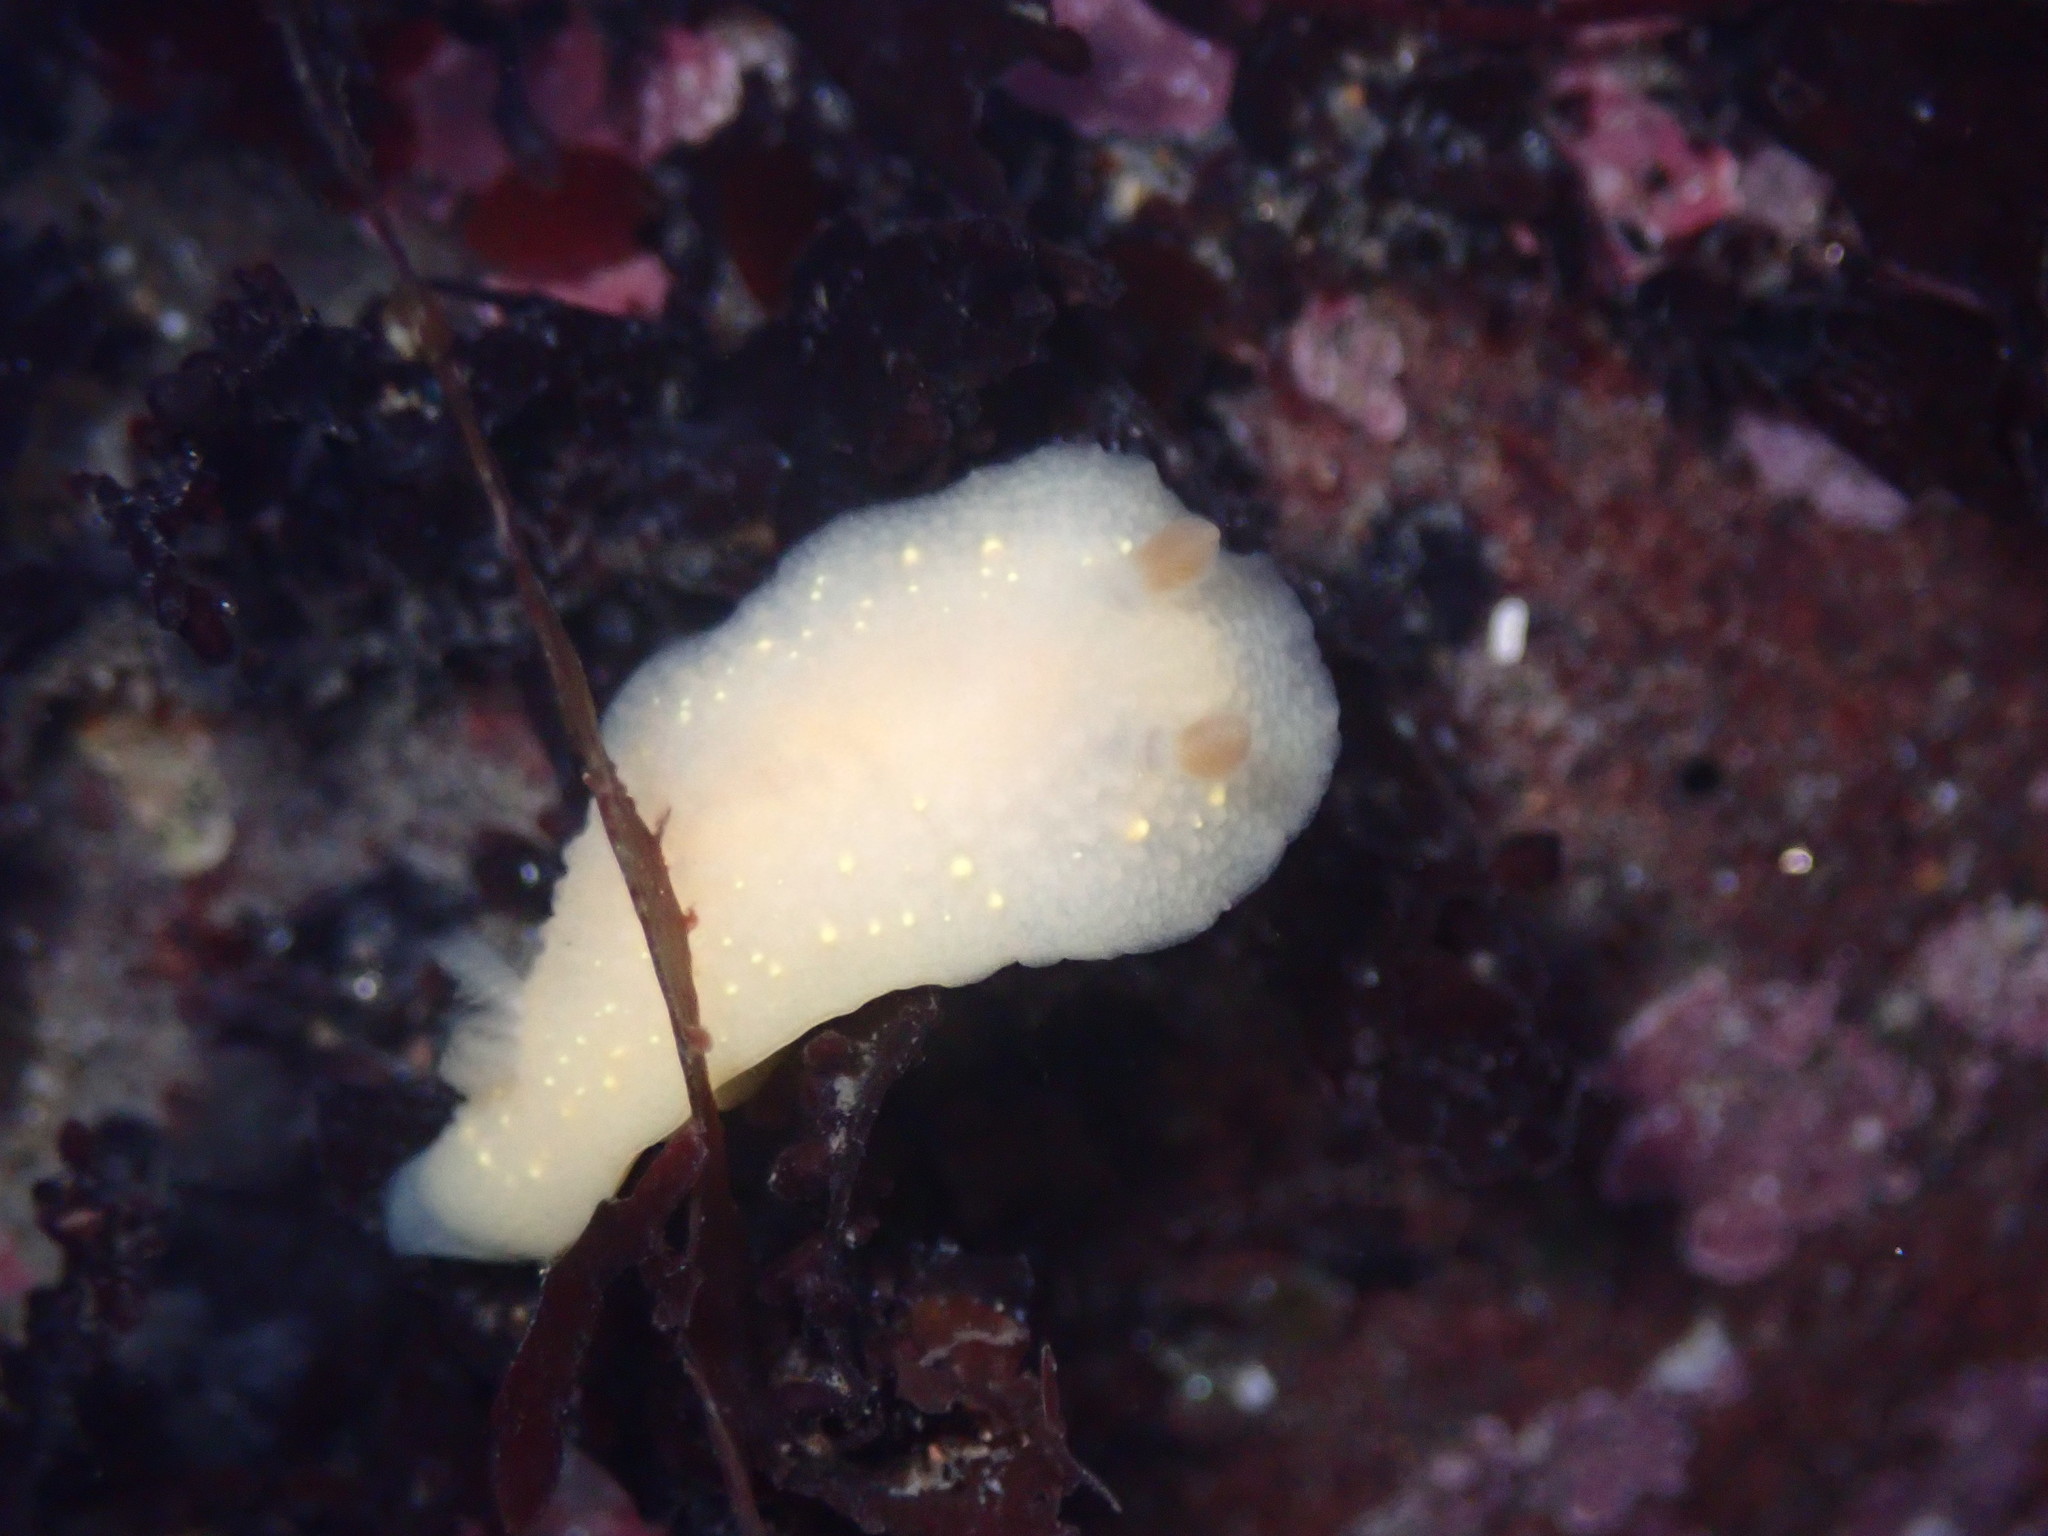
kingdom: Animalia
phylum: Mollusca
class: Gastropoda
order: Nudibranchia
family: Cadlinidae
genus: Cadlina
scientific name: Cadlina modesta
